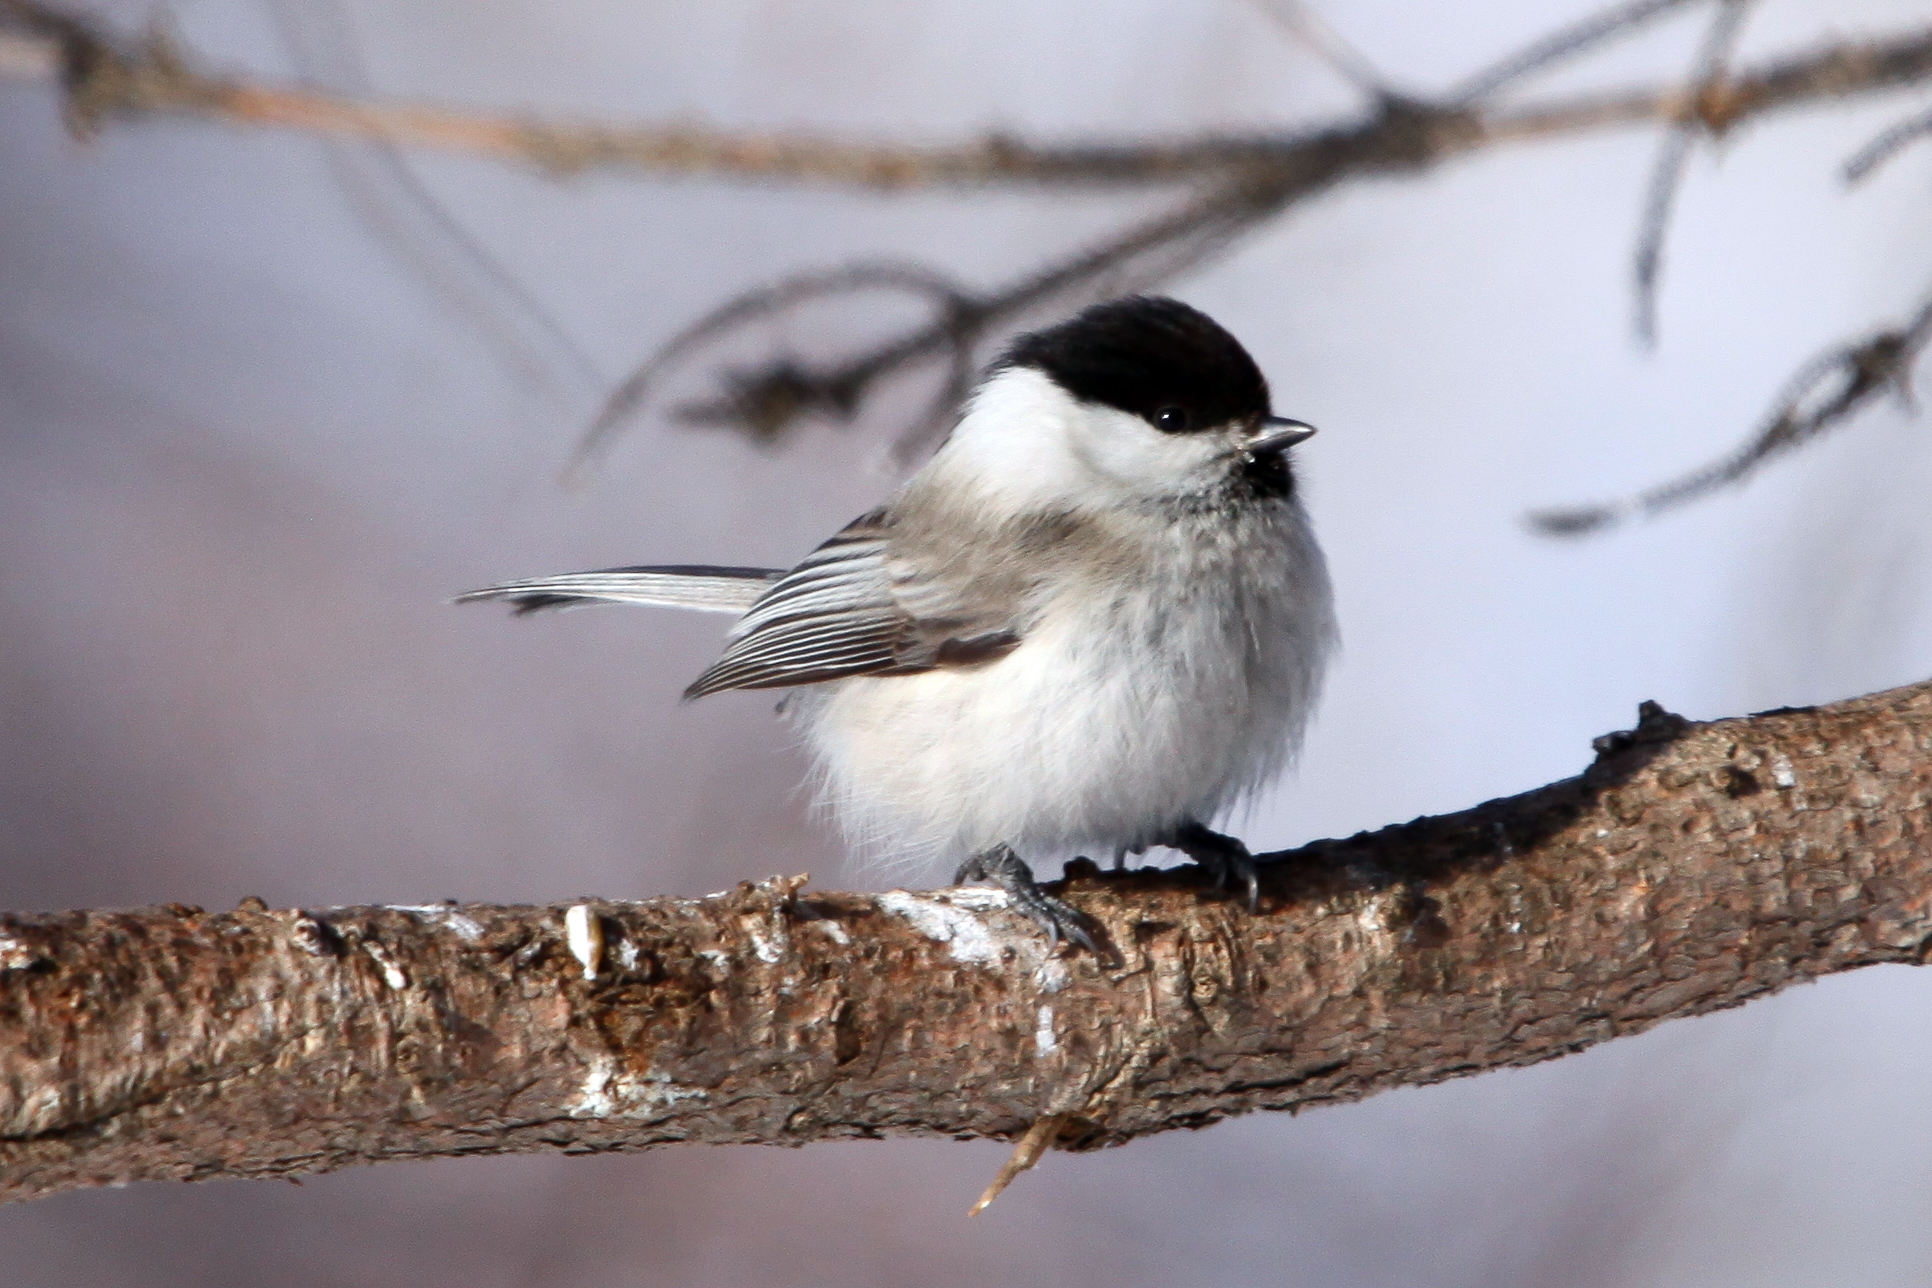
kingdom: Animalia
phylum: Chordata
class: Aves
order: Passeriformes
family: Paridae
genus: Poecile
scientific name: Poecile montanus
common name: Willow tit
